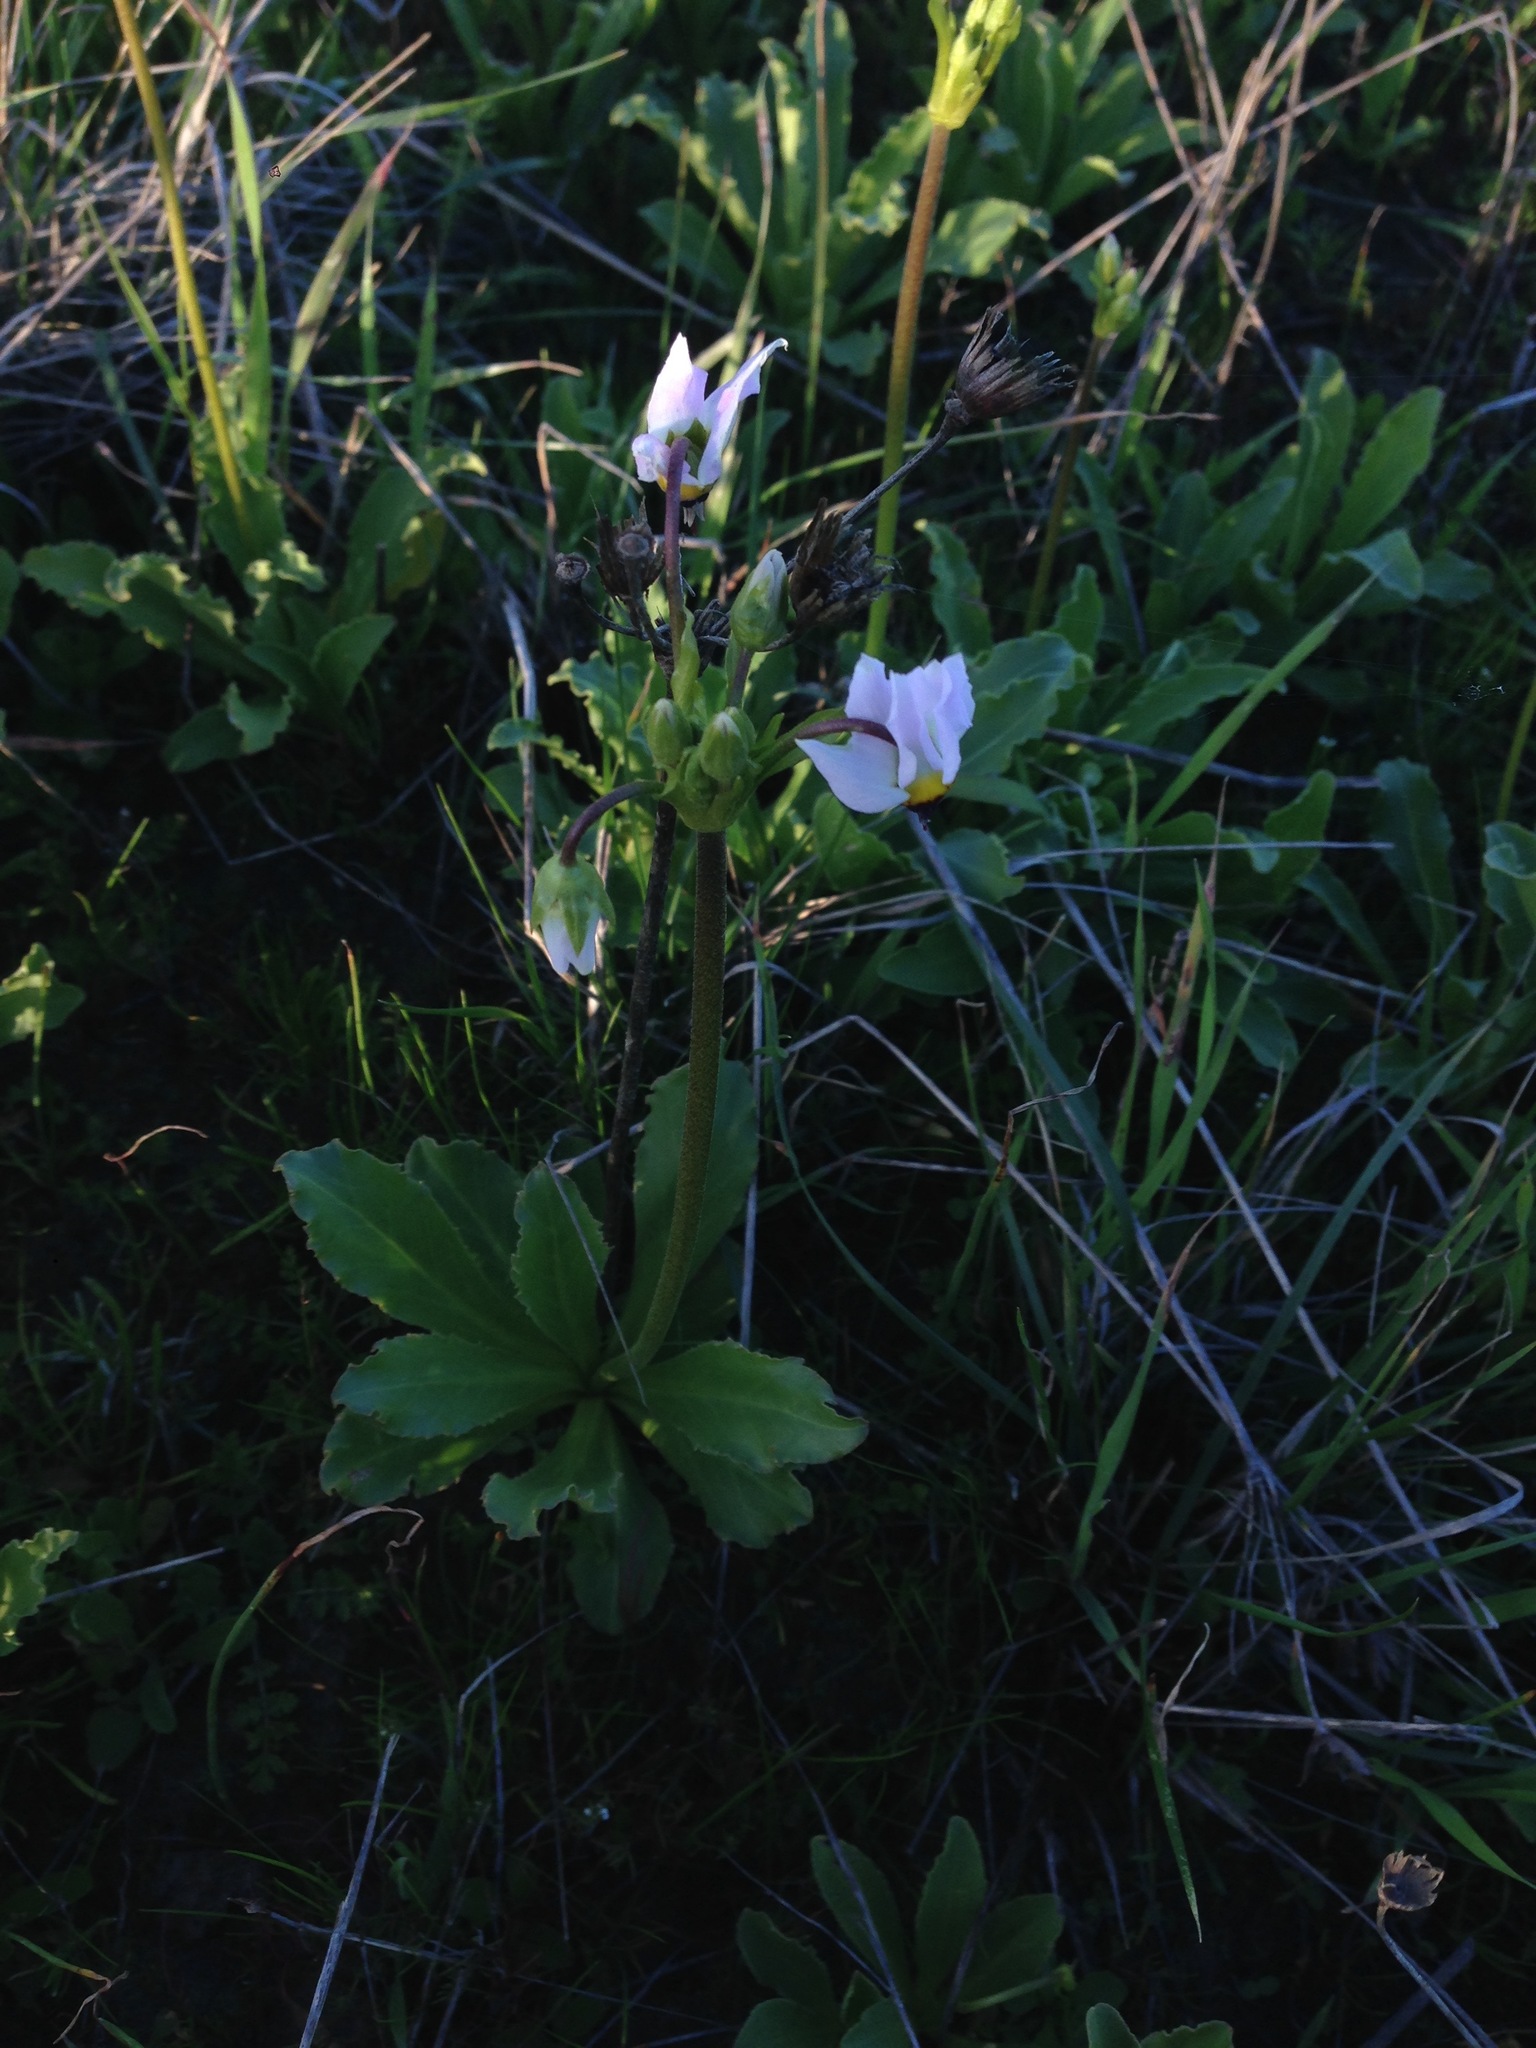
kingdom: Plantae
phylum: Tracheophyta
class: Magnoliopsida
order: Ericales
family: Primulaceae
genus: Dodecatheon
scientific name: Dodecatheon clevelandii
